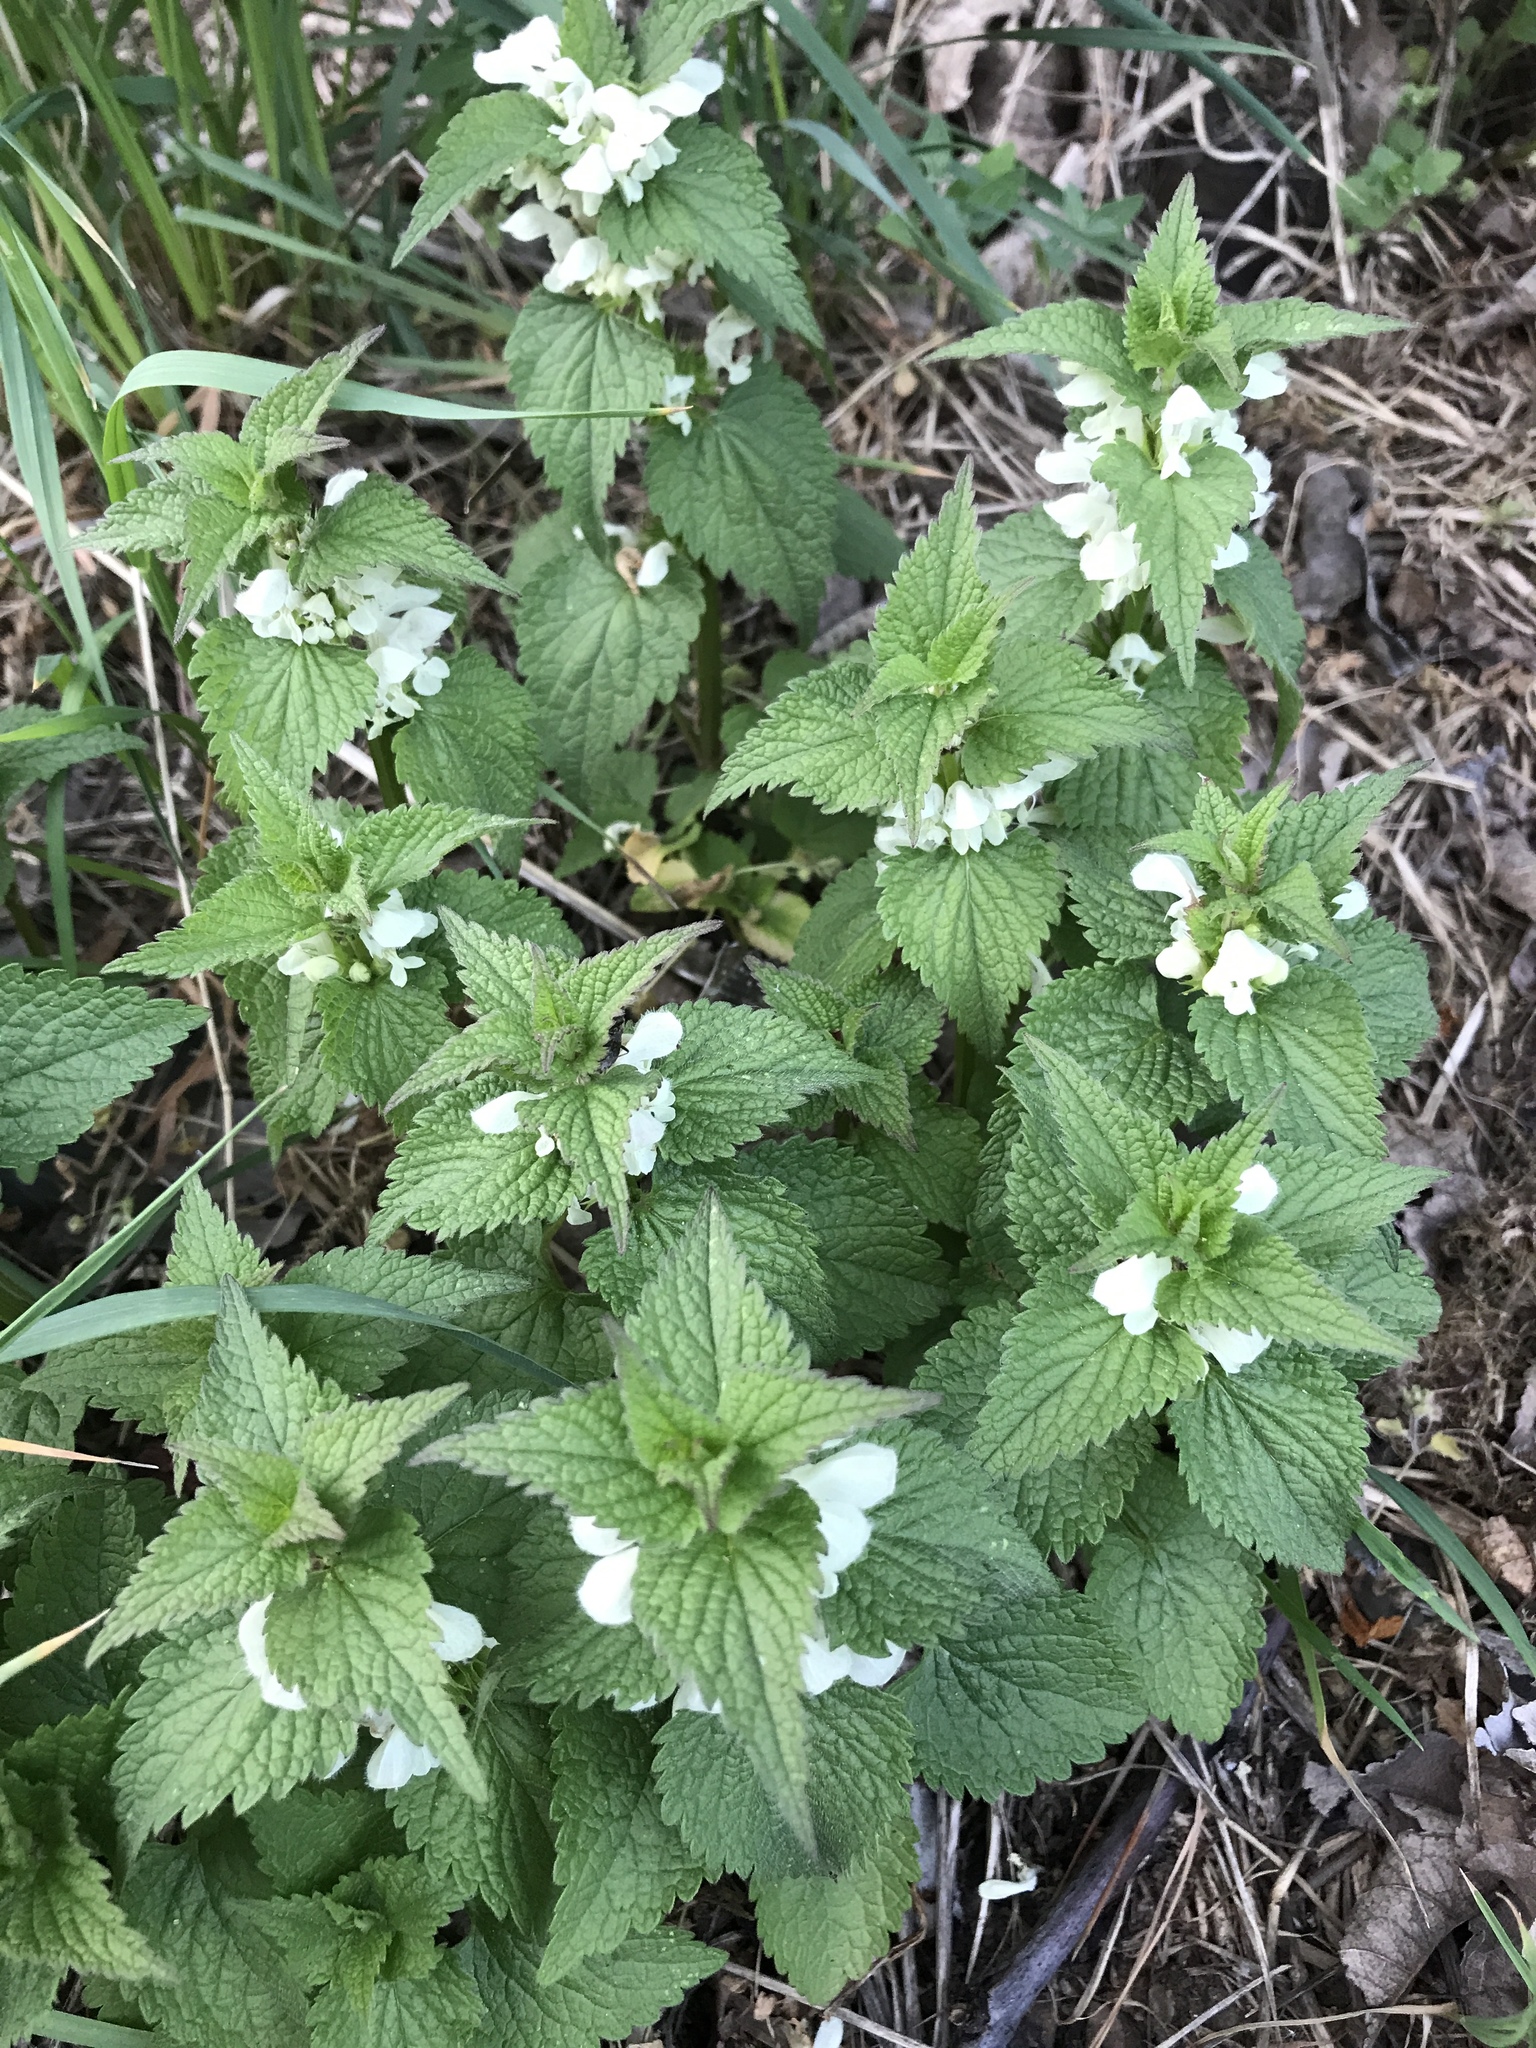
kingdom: Plantae
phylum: Tracheophyta
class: Magnoliopsida
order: Lamiales
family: Lamiaceae
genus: Lamium
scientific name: Lamium album
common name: White dead-nettle
